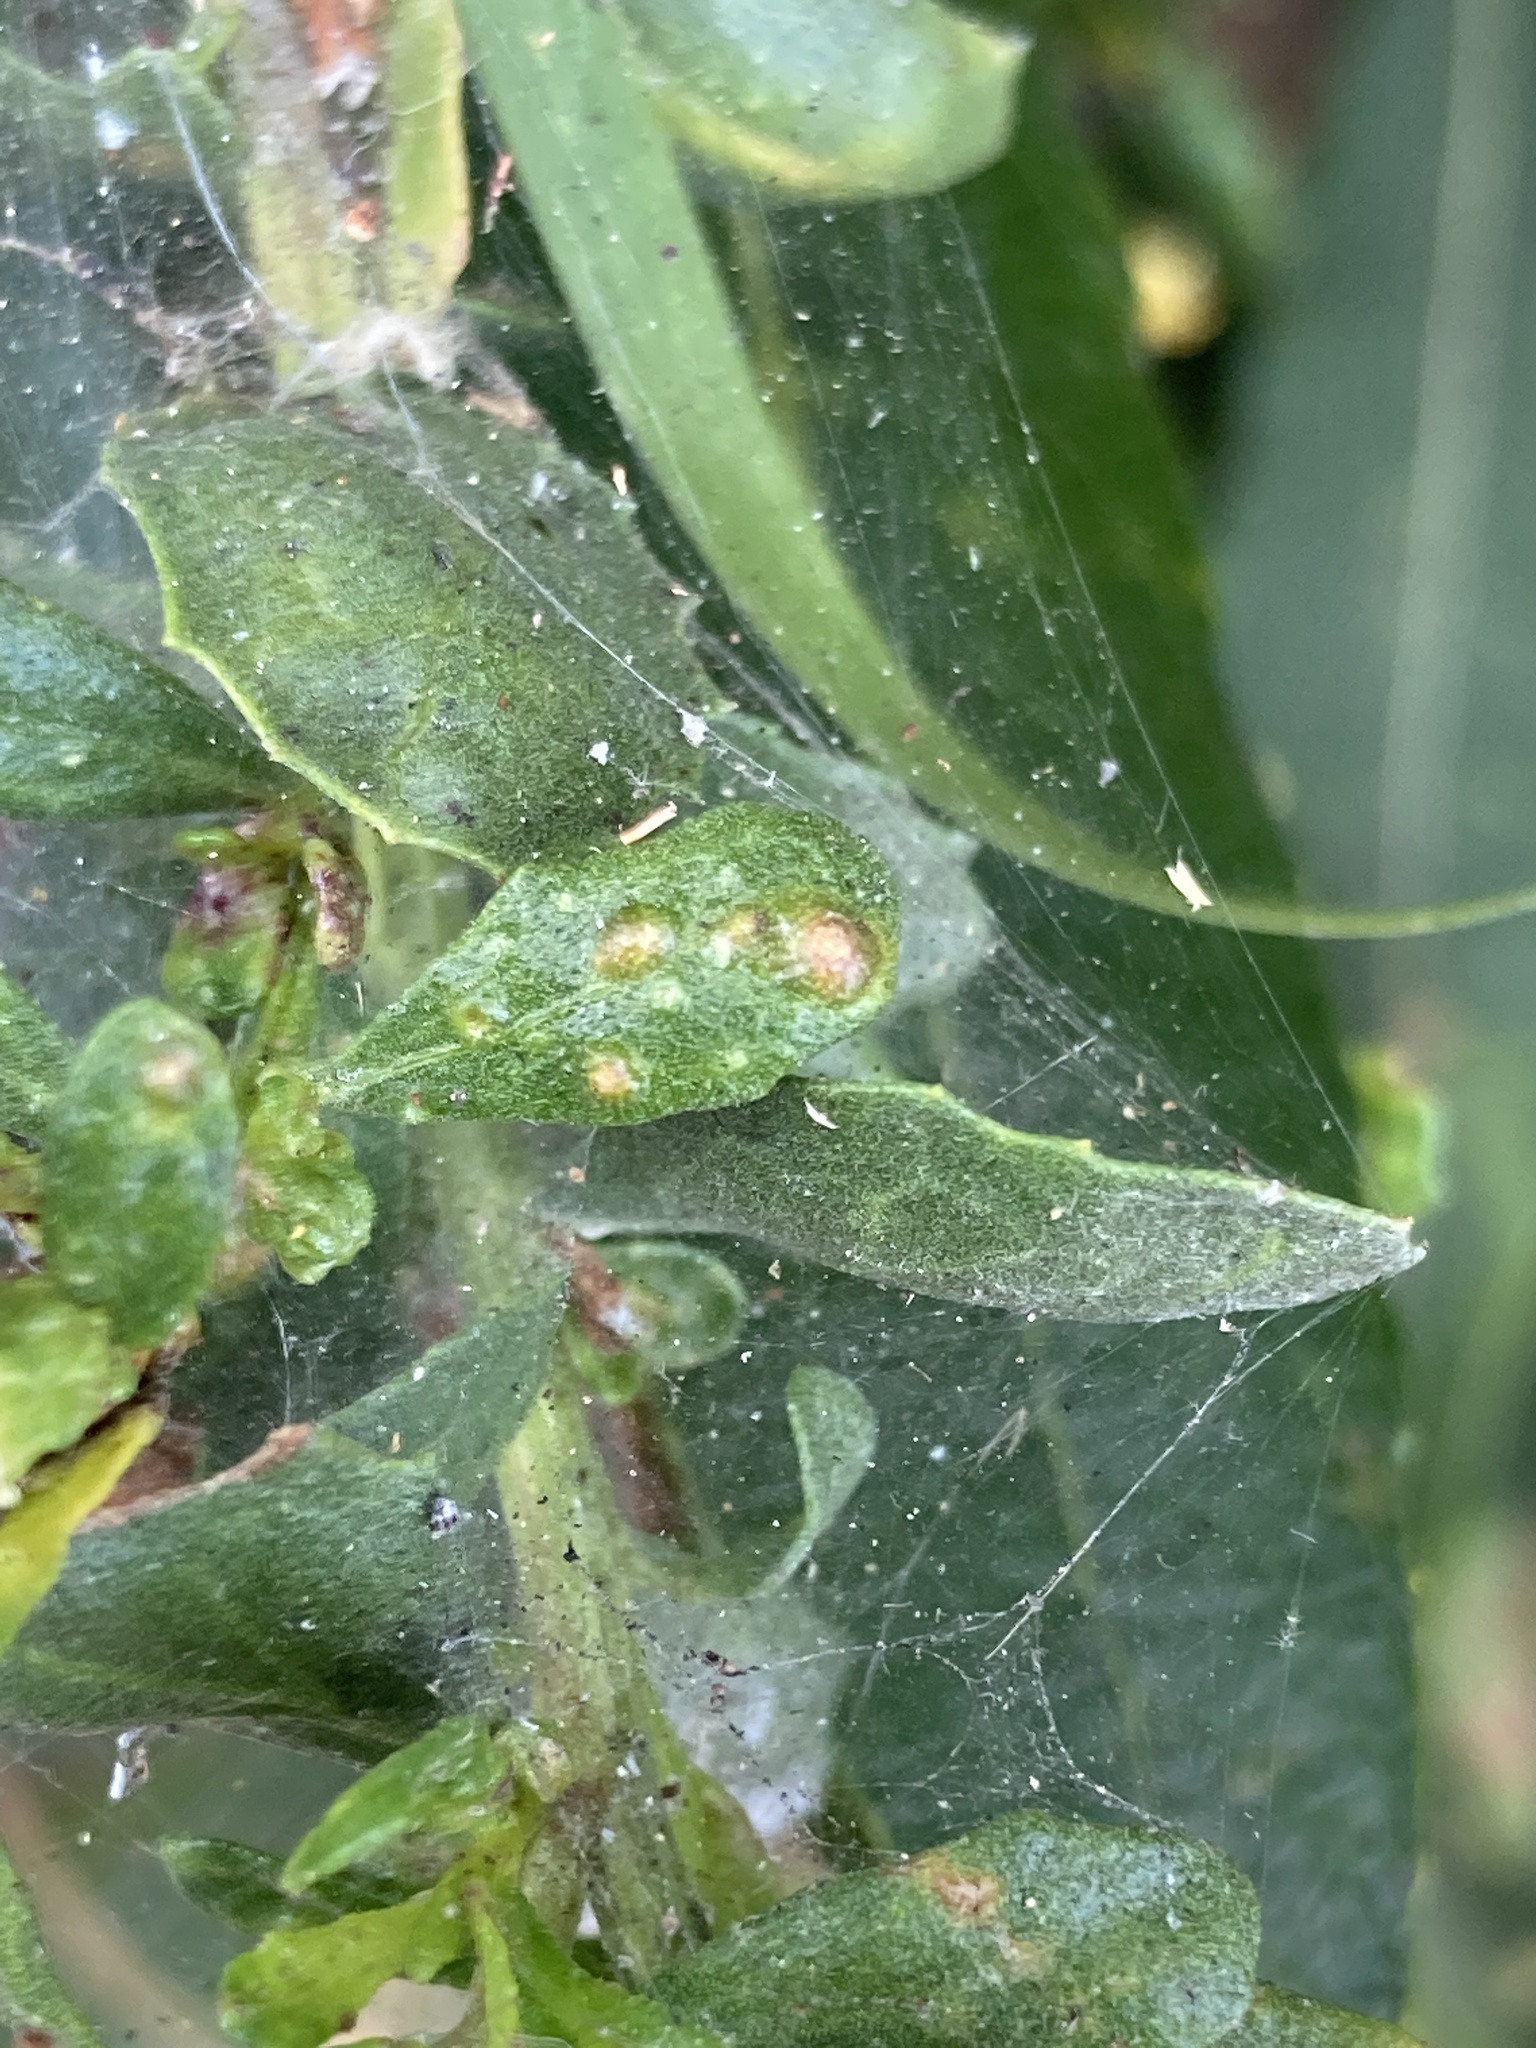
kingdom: Animalia
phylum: Arthropoda
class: Arachnida
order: Trombidiformes
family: Eriophyidae
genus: Aceria
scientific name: Aceria
